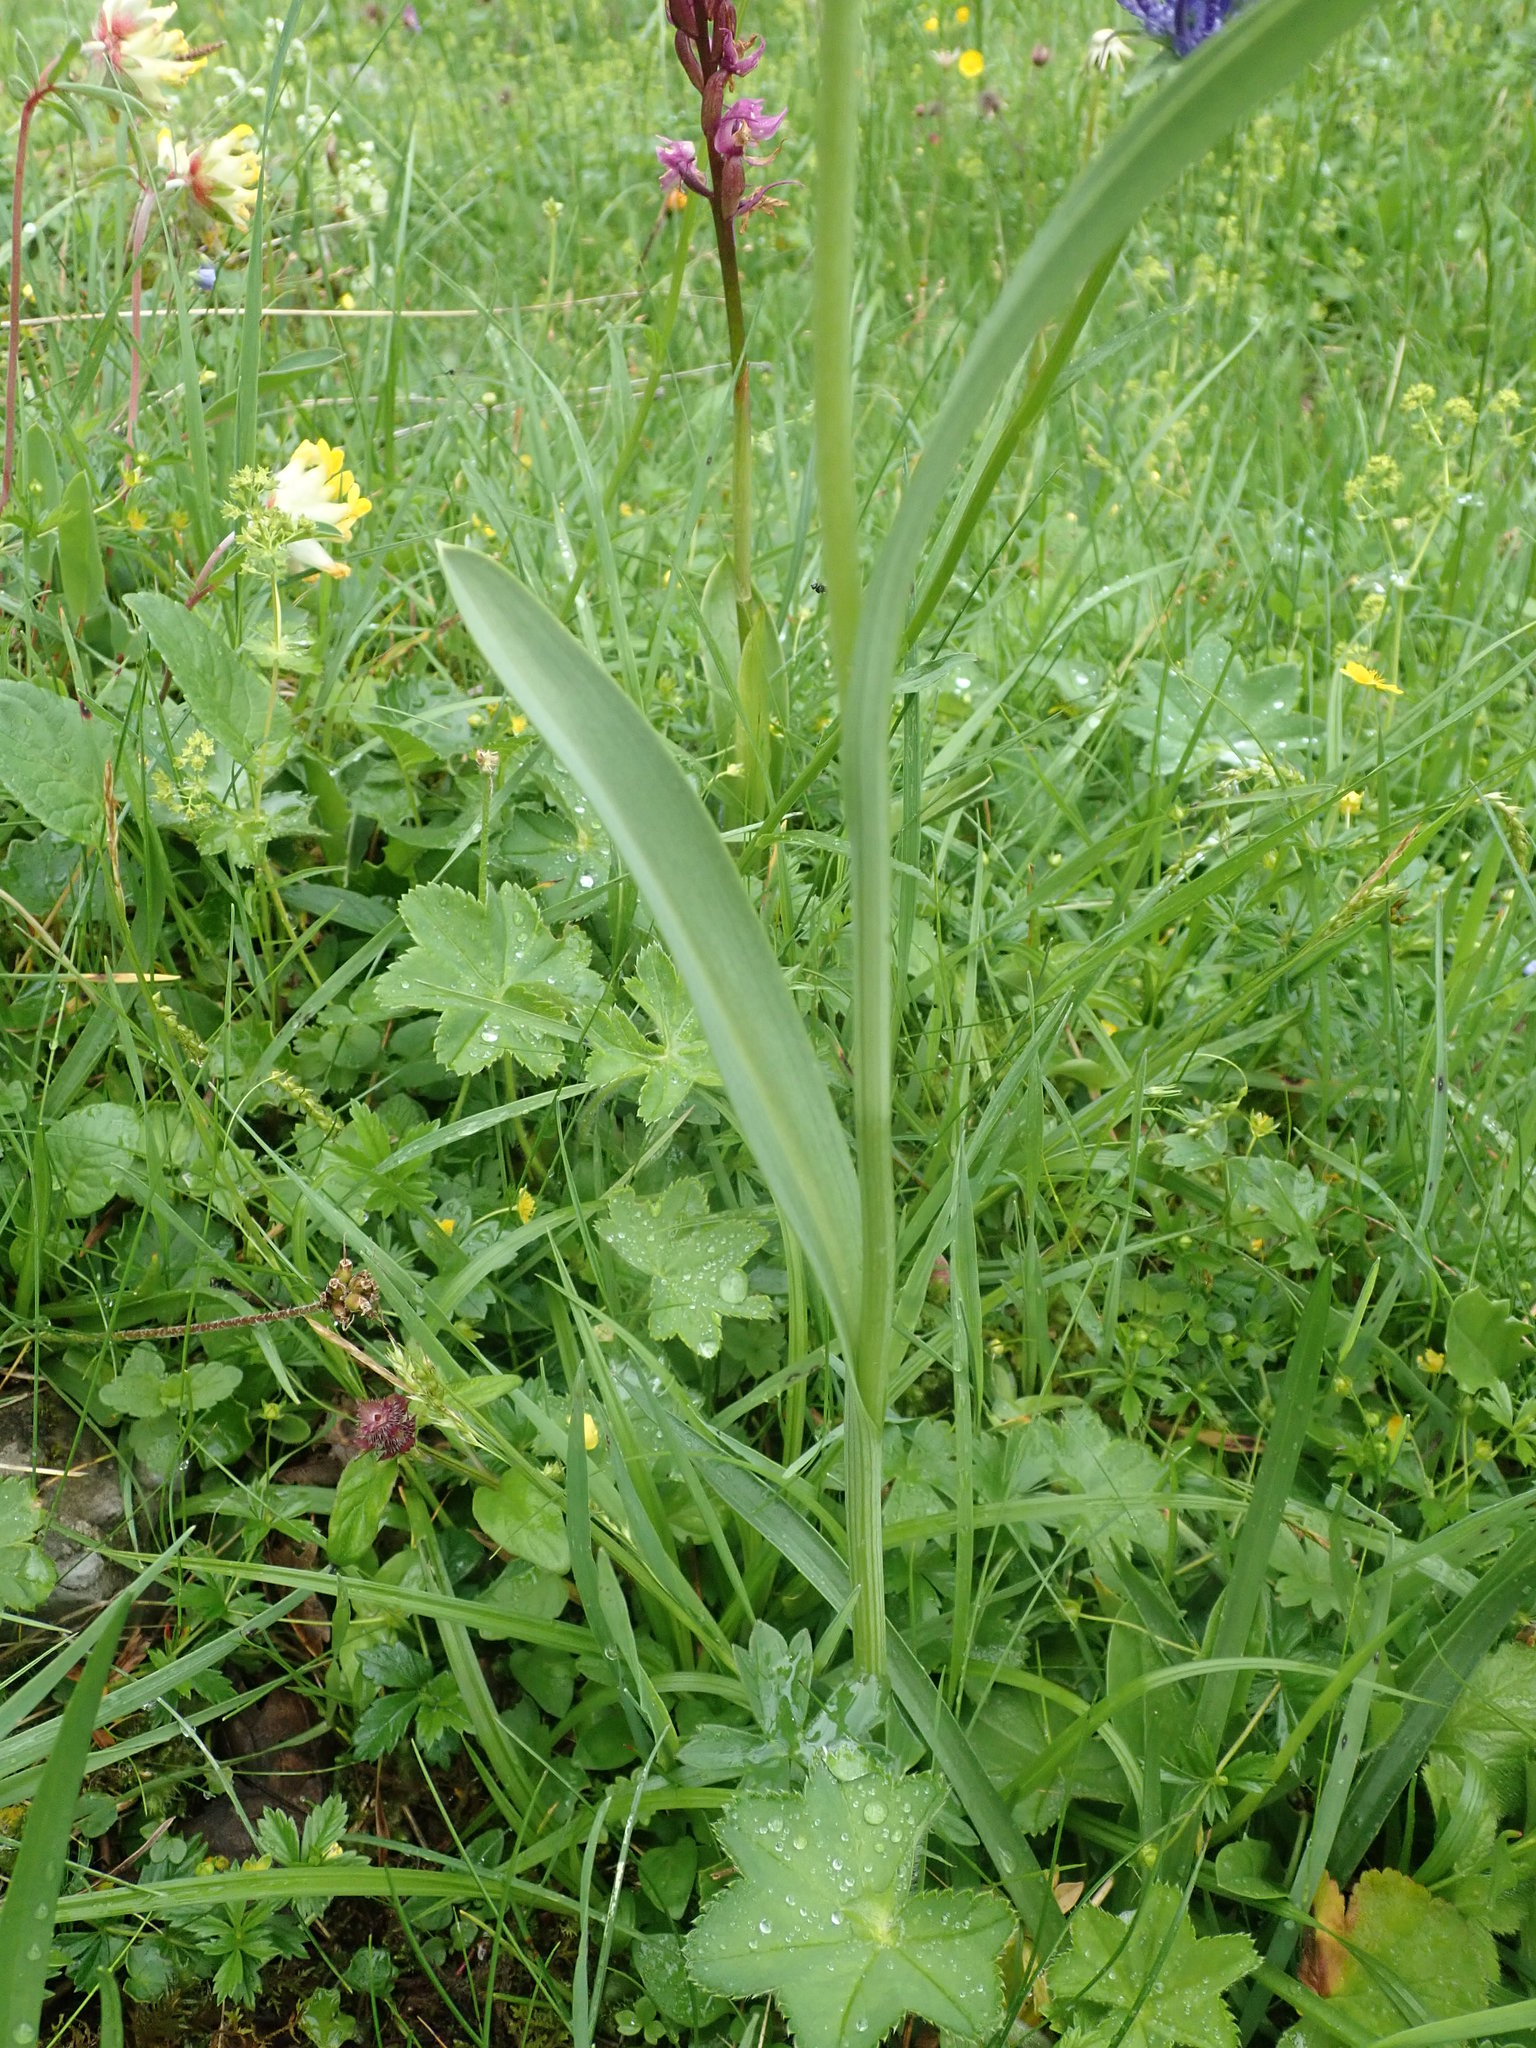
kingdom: Plantae
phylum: Tracheophyta
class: Liliopsida
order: Asparagales
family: Orchidaceae
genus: Traunsteinera
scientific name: Traunsteinera globosa
